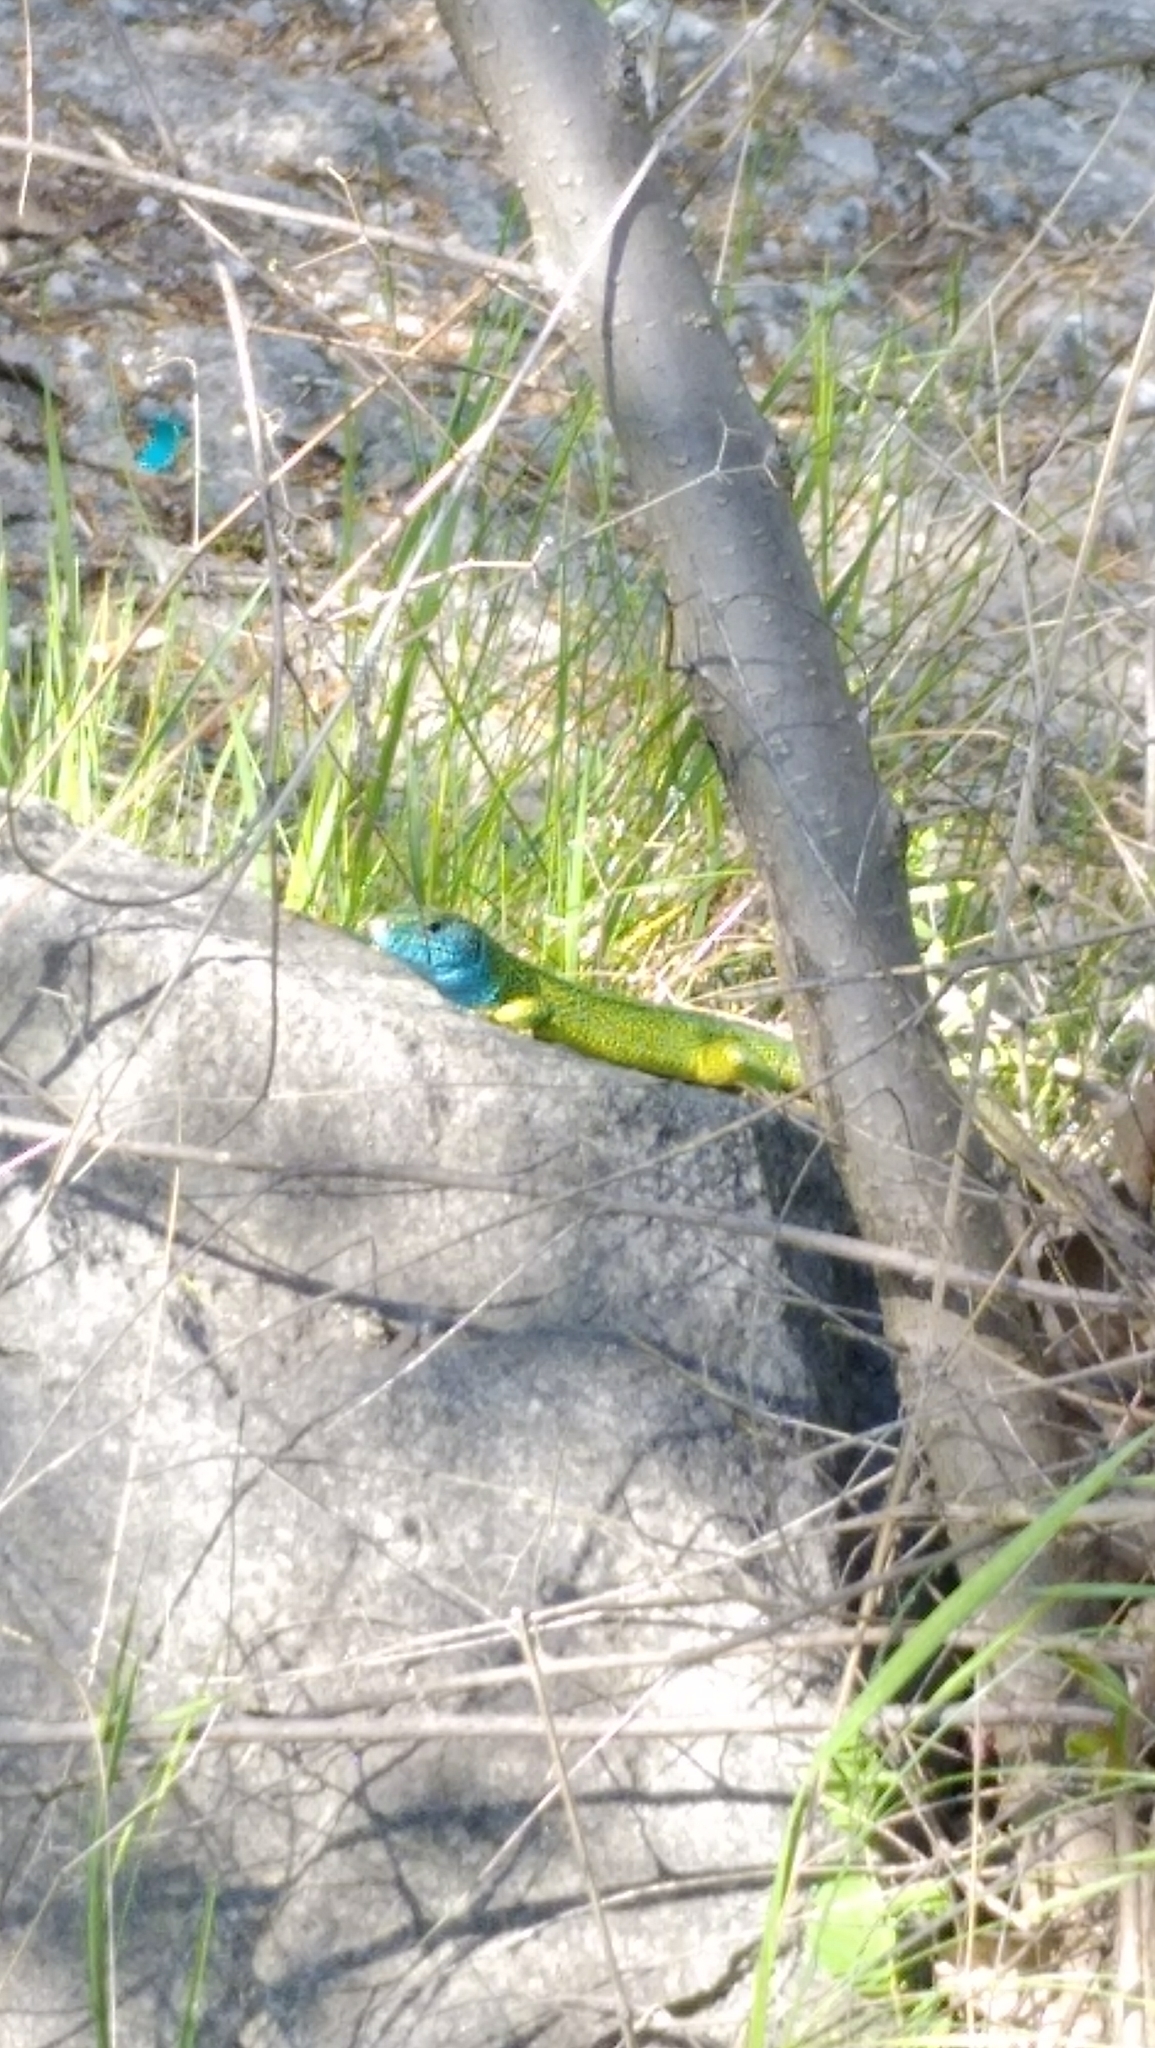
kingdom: Animalia
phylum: Chordata
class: Squamata
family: Lacertidae
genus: Lacerta
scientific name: Lacerta viridis
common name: European green lizard
